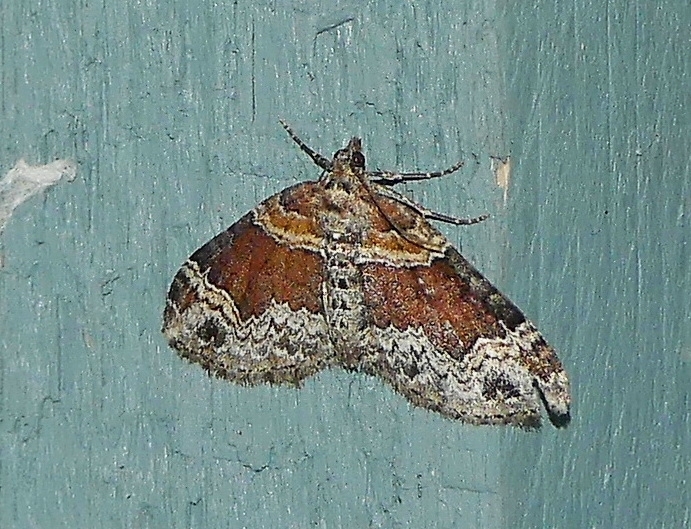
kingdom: Animalia
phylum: Arthropoda
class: Insecta
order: Lepidoptera
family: Geometridae
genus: Xanthorhoe
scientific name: Xanthorhoe ferrugata
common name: Dark-barred twin-spot carpet
